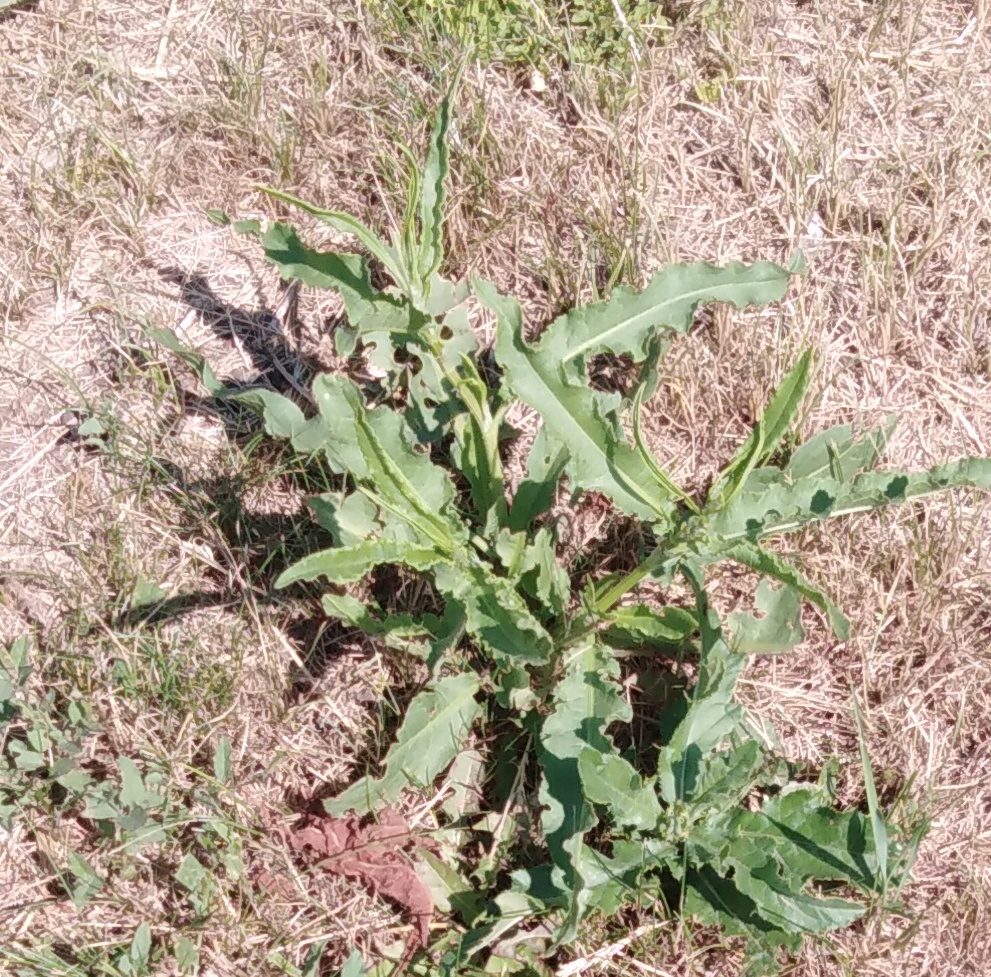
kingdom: Plantae
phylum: Tracheophyta
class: Magnoliopsida
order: Asterales
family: Asteraceae
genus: Cichorium
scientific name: Cichorium intybus
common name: Chicory
